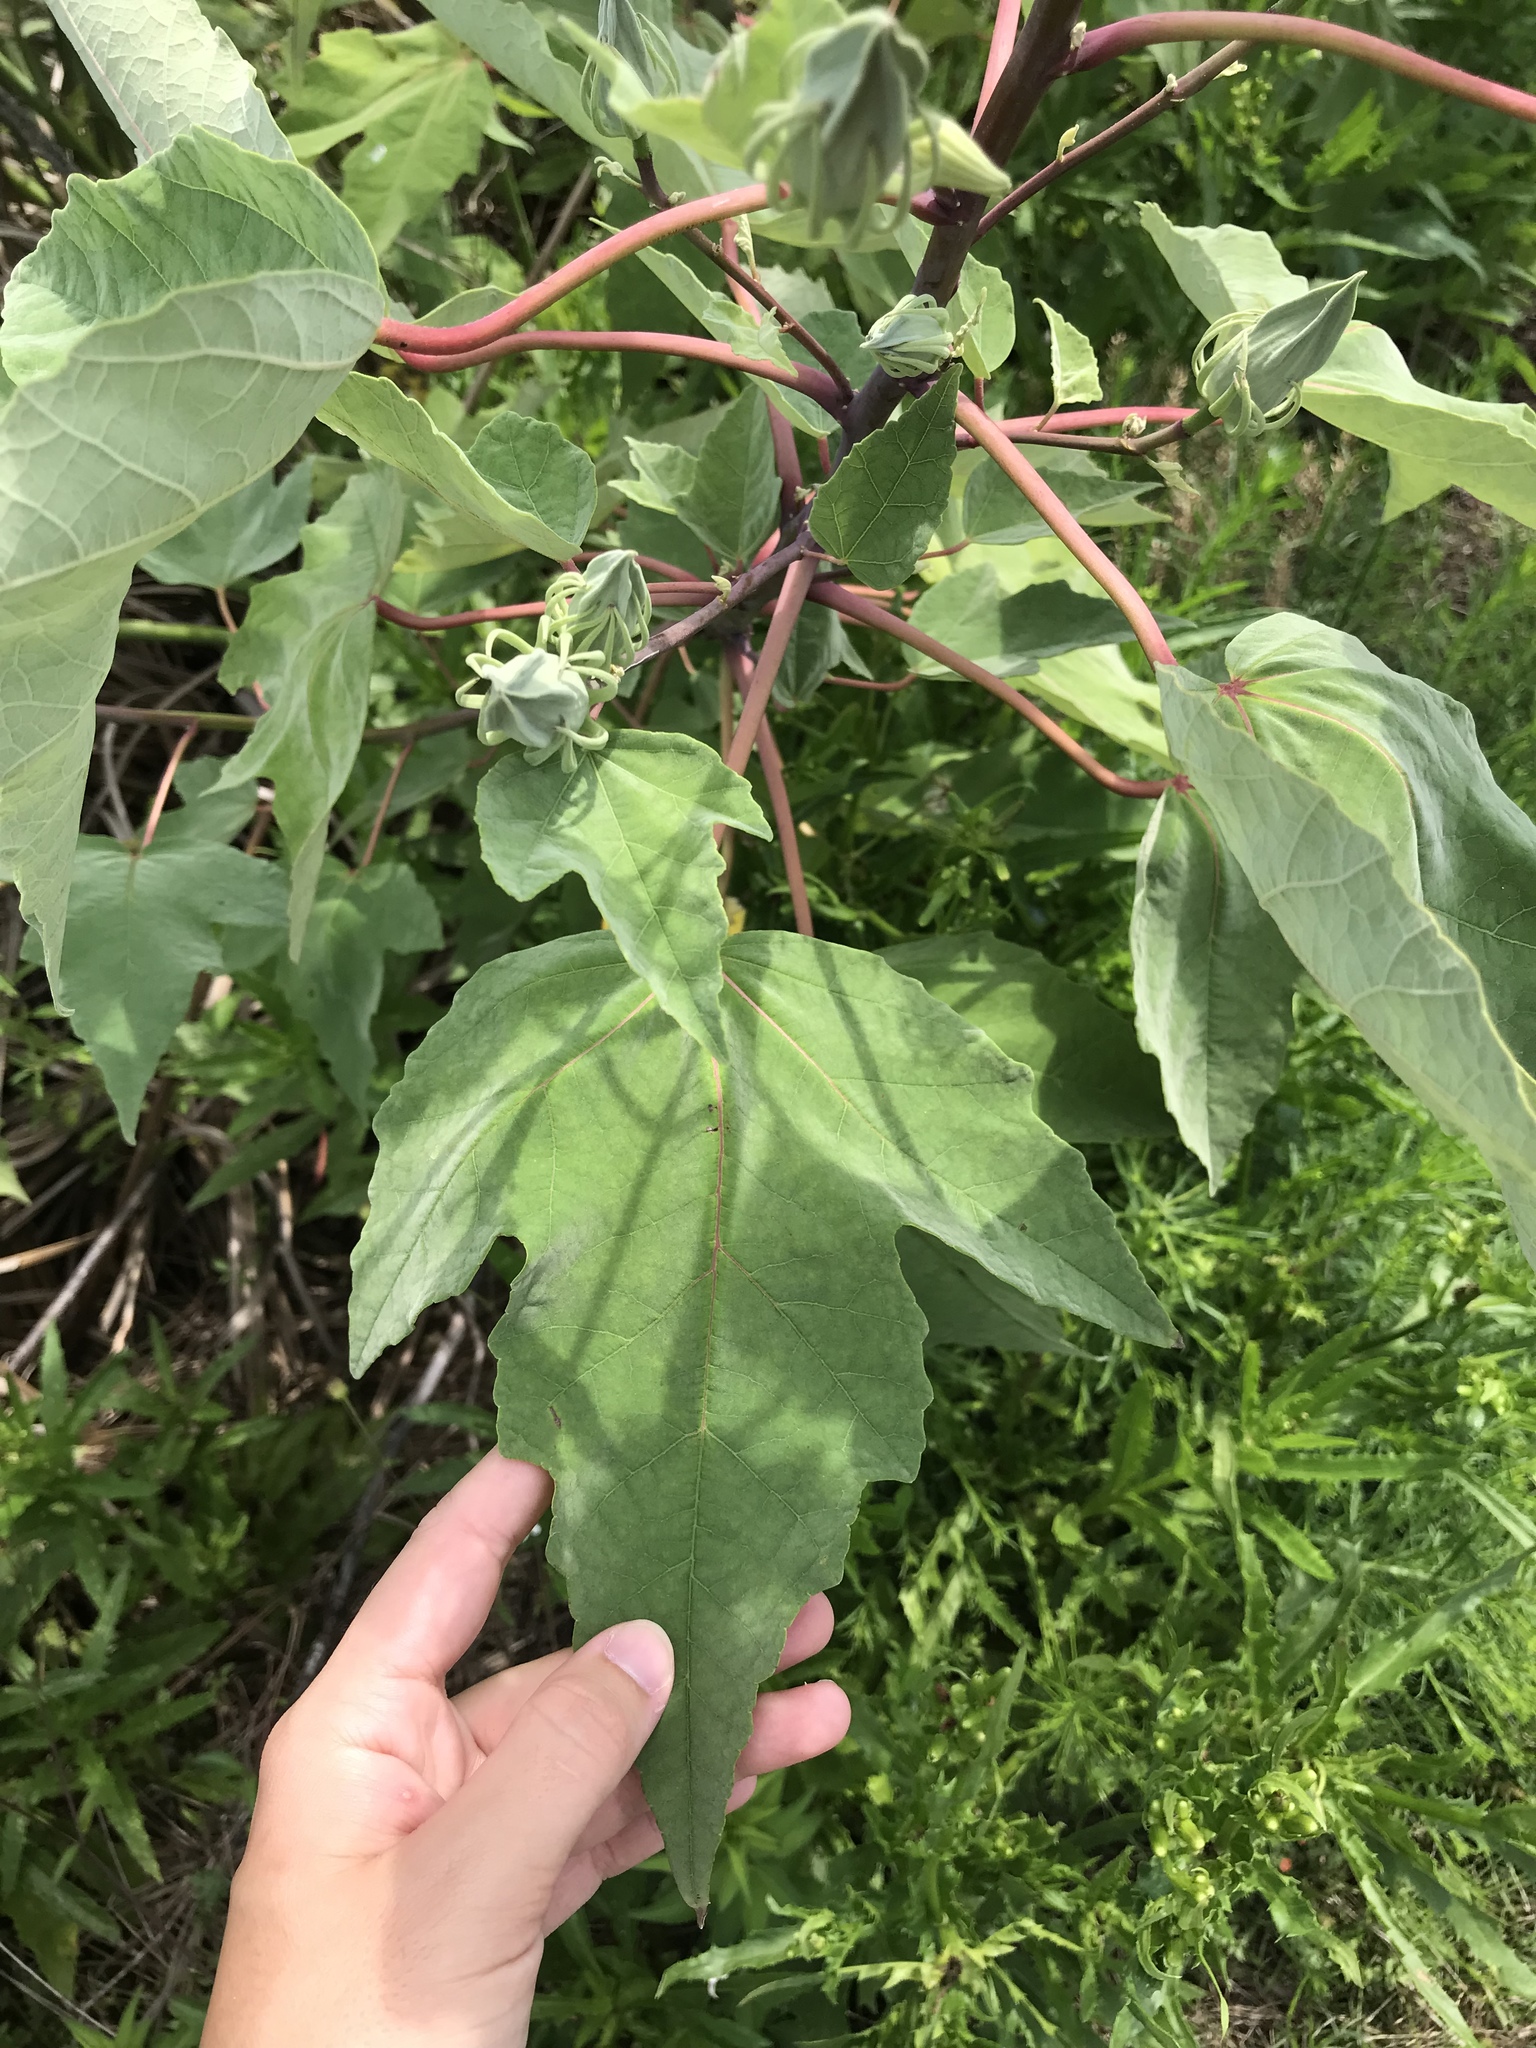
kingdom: Plantae
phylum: Tracheophyta
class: Magnoliopsida
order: Malvales
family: Malvaceae
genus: Hibiscus
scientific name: Hibiscus grandiflorus
